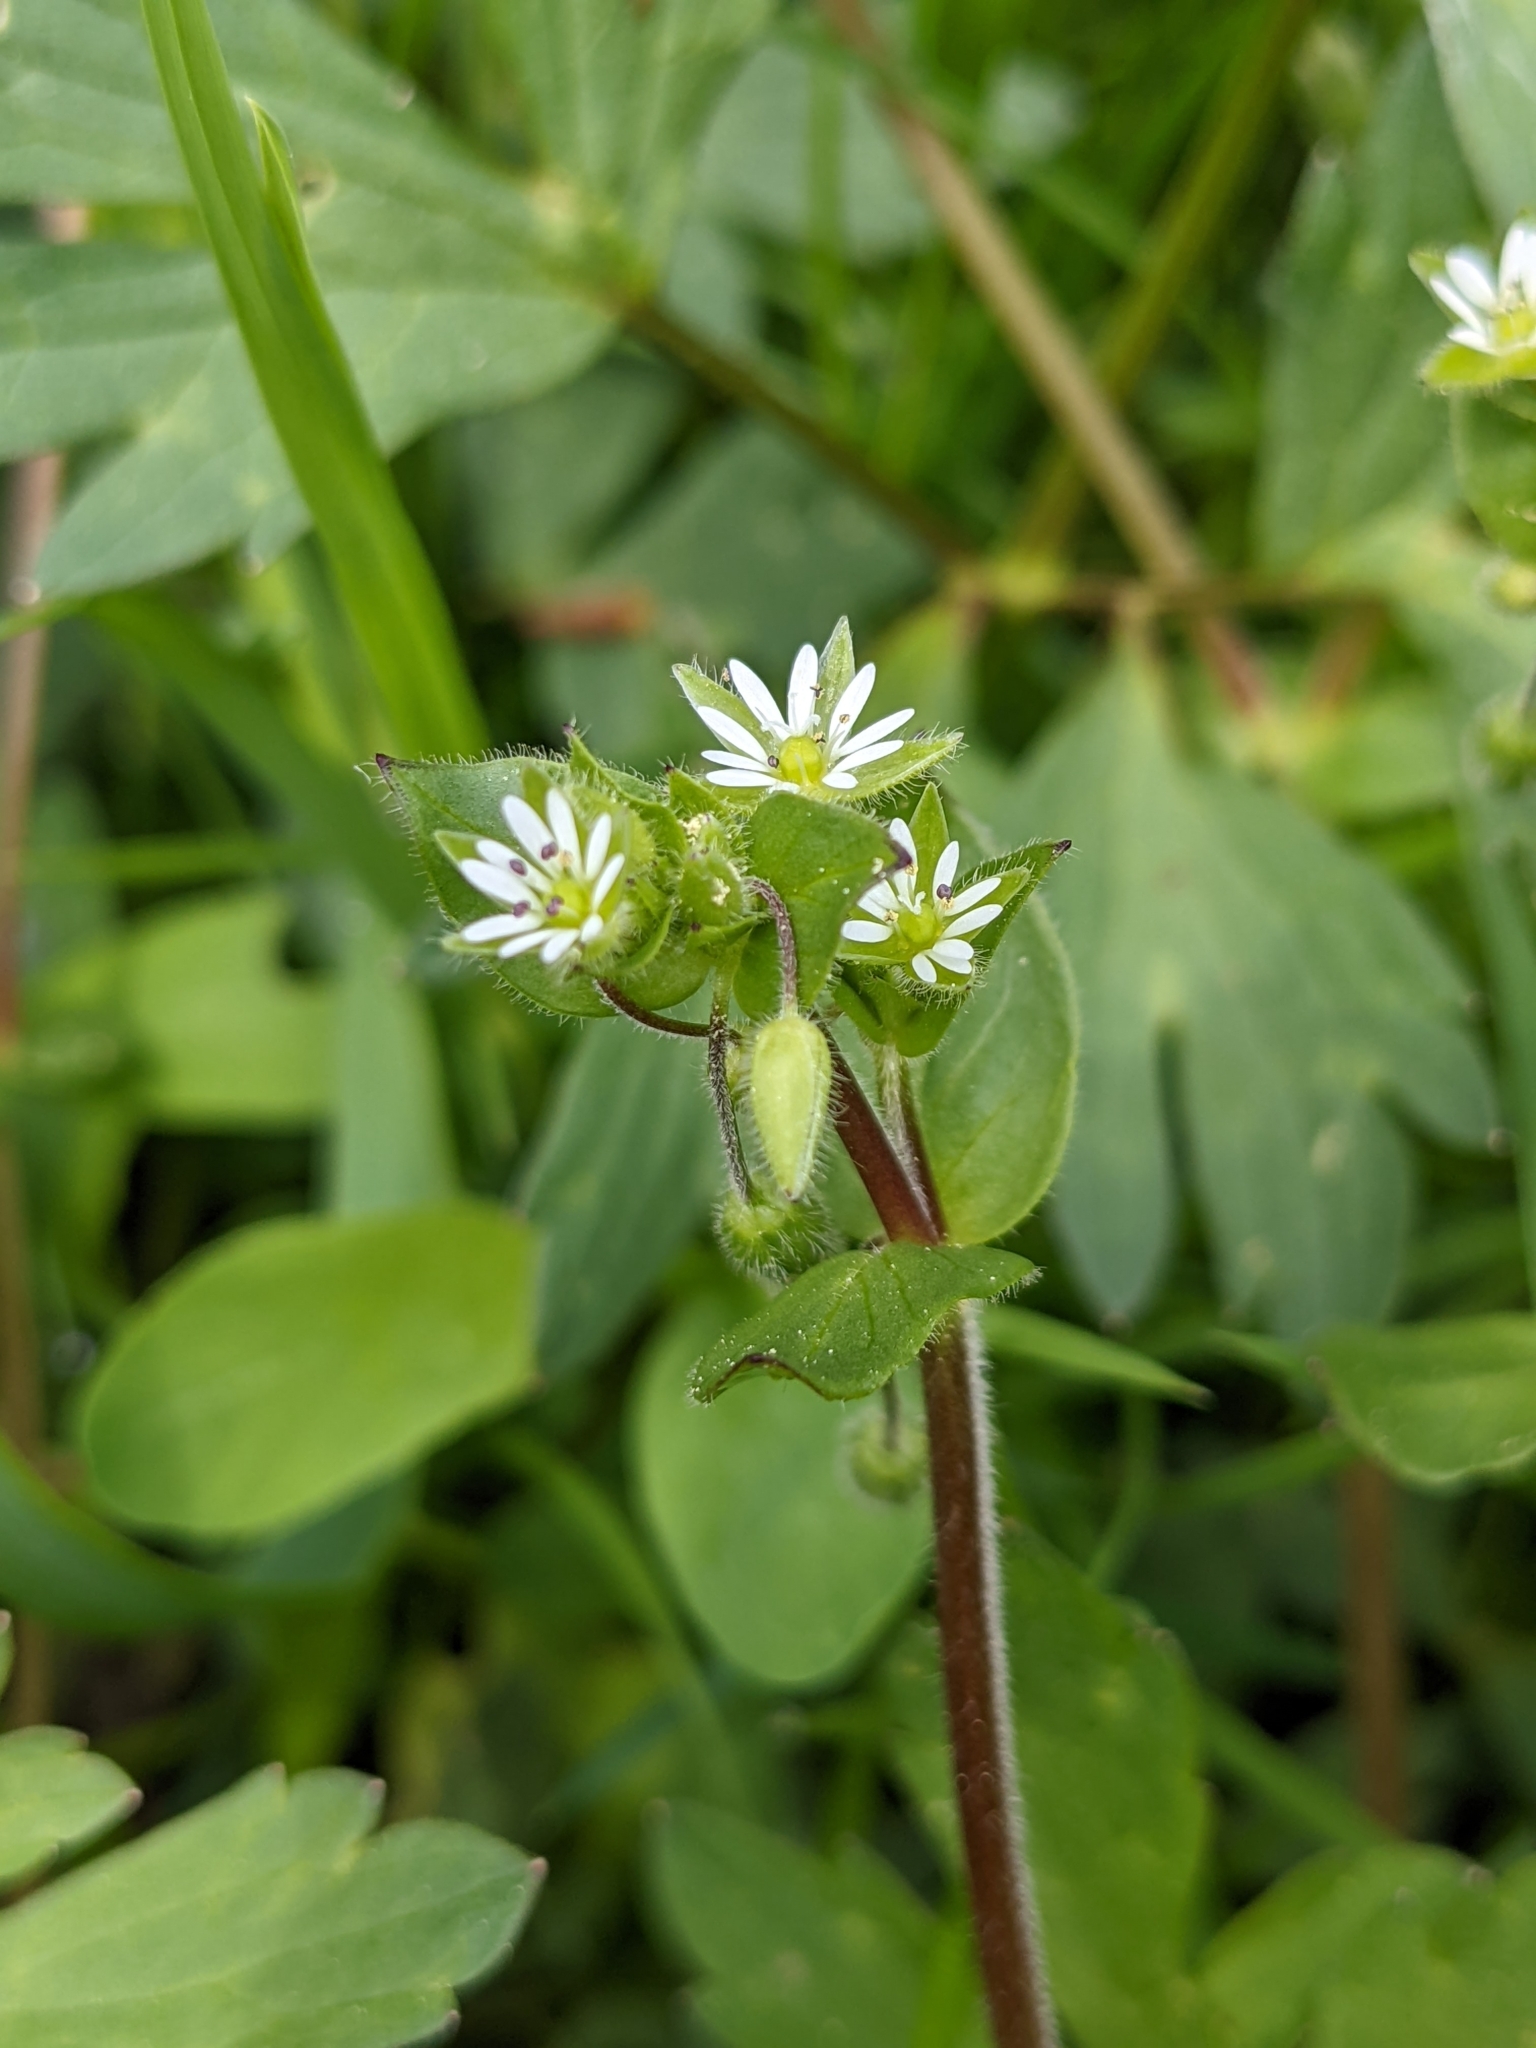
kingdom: Plantae
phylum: Tracheophyta
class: Magnoliopsida
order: Caryophyllales
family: Caryophyllaceae
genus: Stellaria
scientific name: Stellaria
